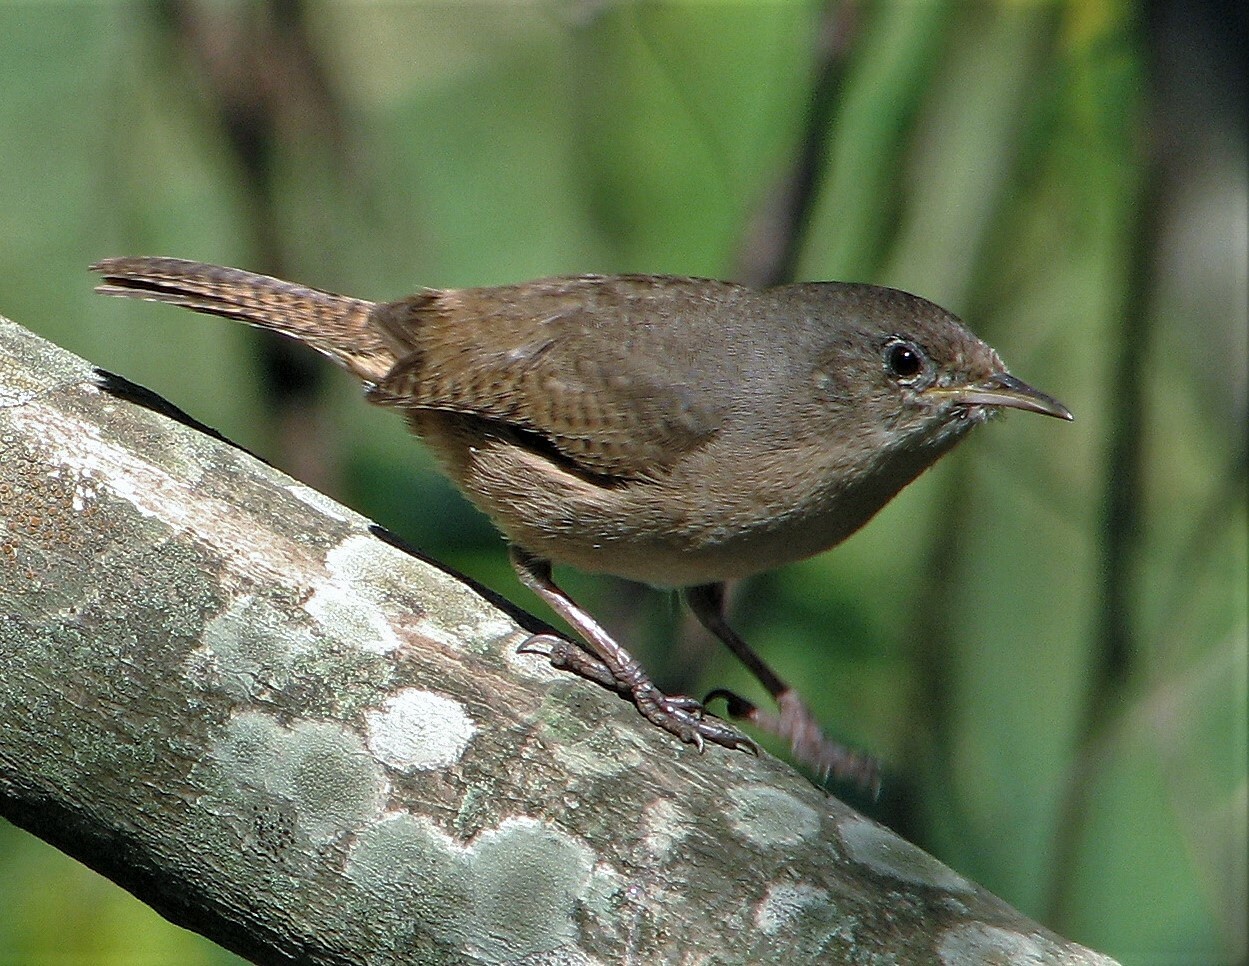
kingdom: Animalia
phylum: Chordata
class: Aves
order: Passeriformes
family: Troglodytidae
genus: Troglodytes
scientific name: Troglodytes aedon
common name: House wren
